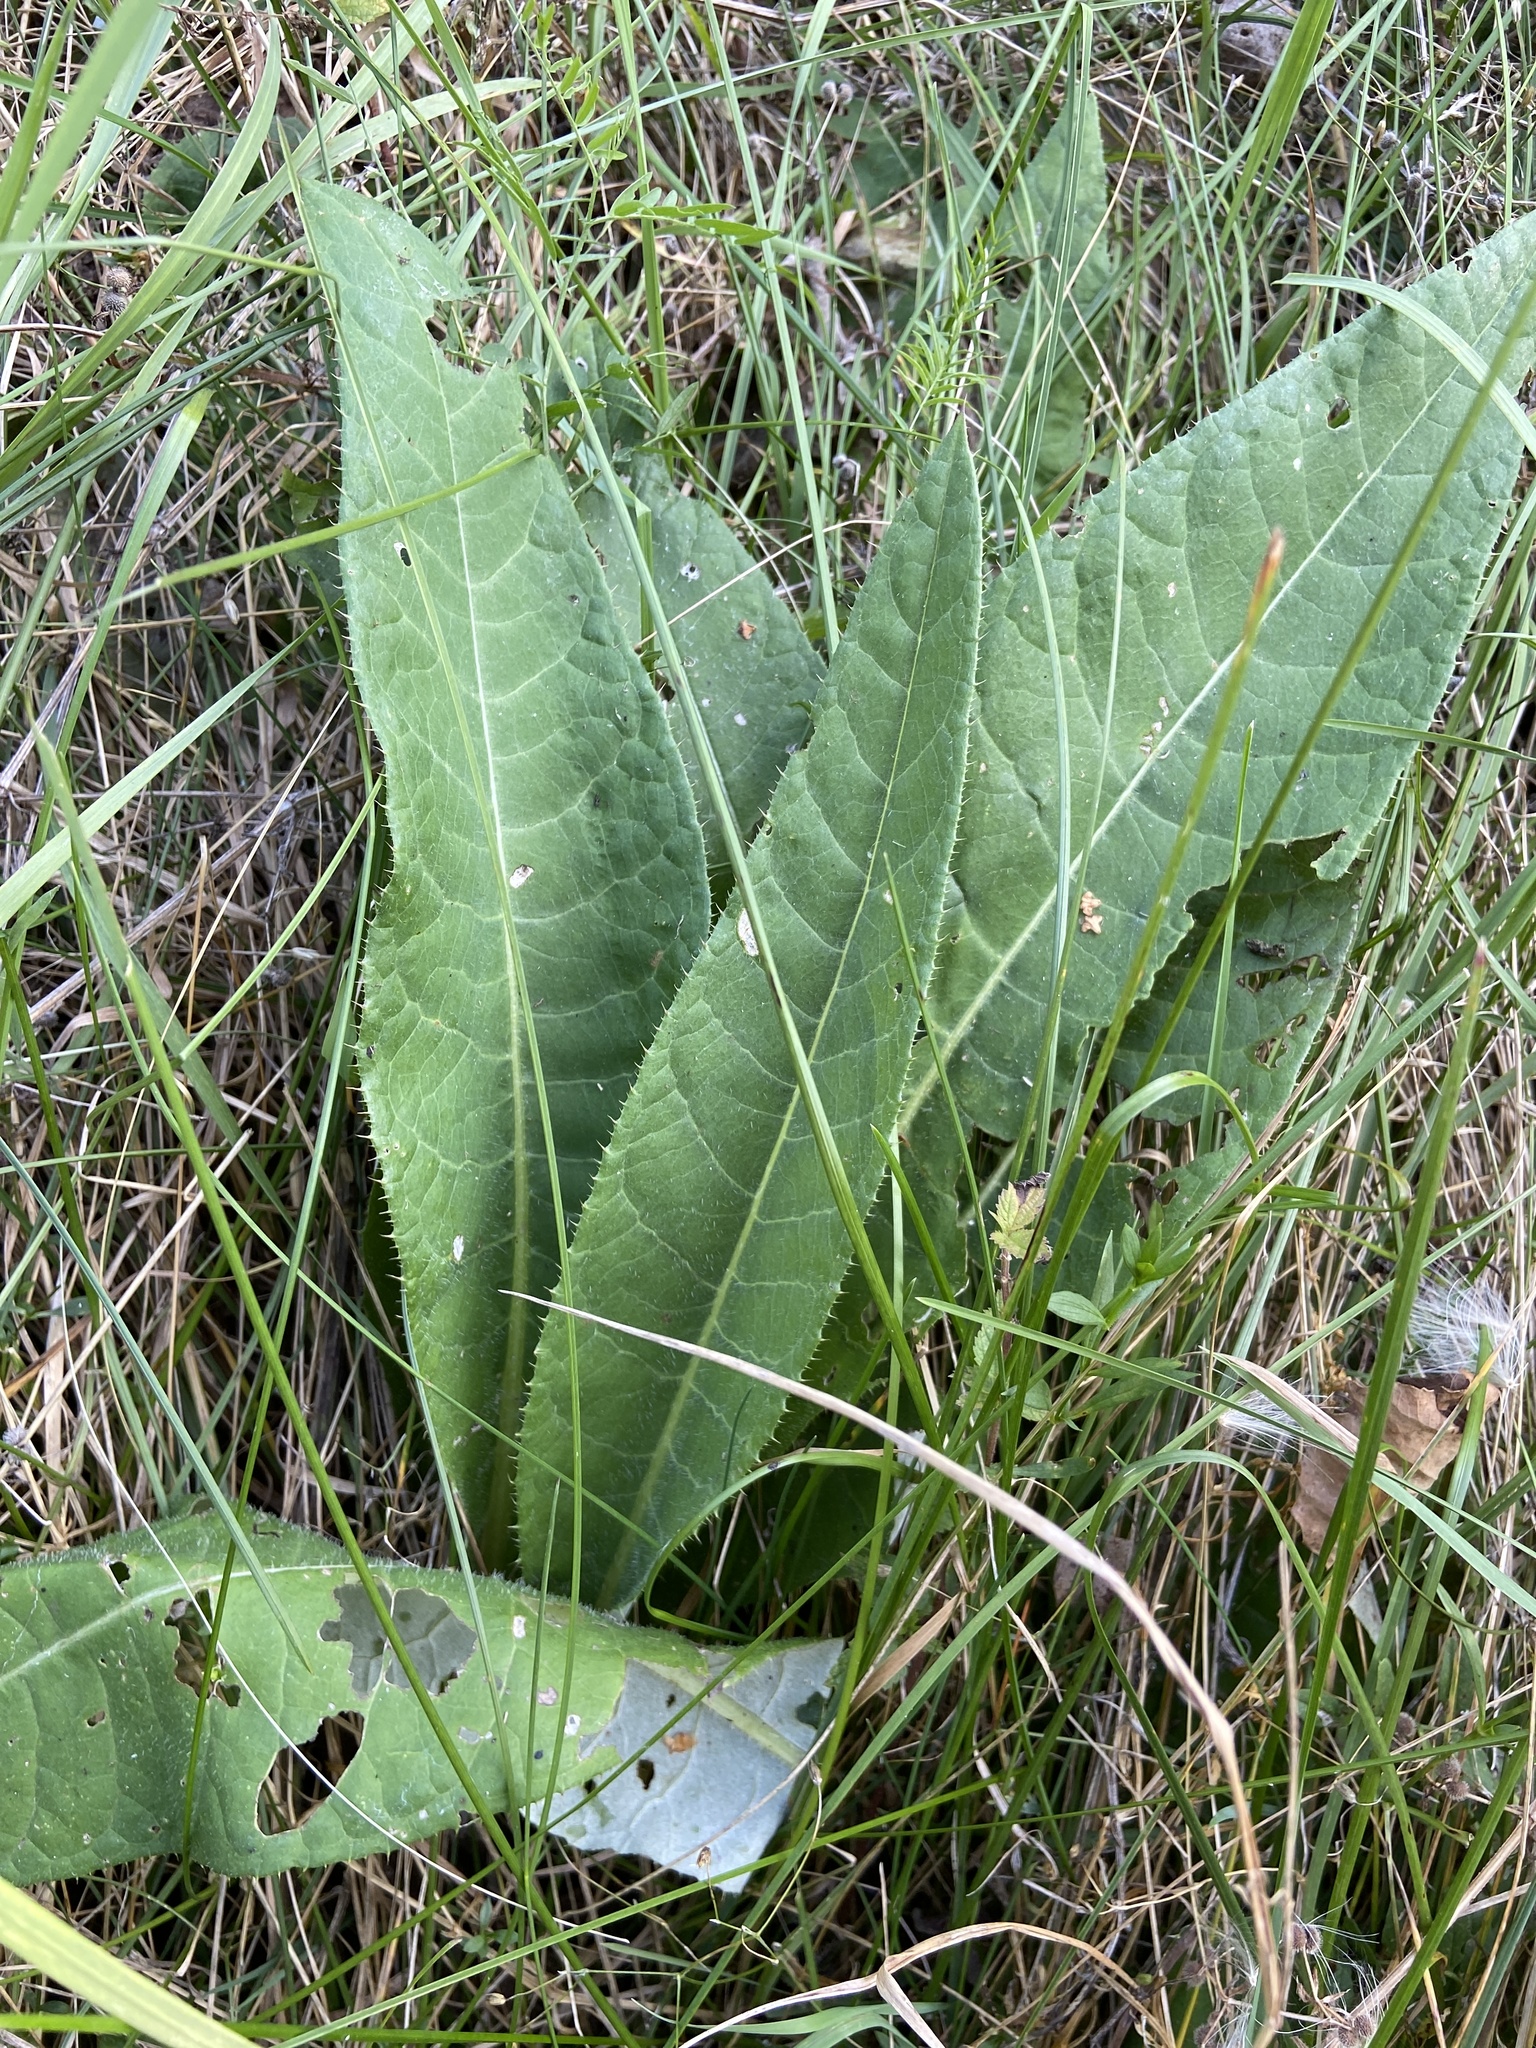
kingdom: Plantae
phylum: Tracheophyta
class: Magnoliopsida
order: Asterales
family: Asteraceae
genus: Cirsium
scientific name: Cirsium heterophyllum
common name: Melancholy thistle
